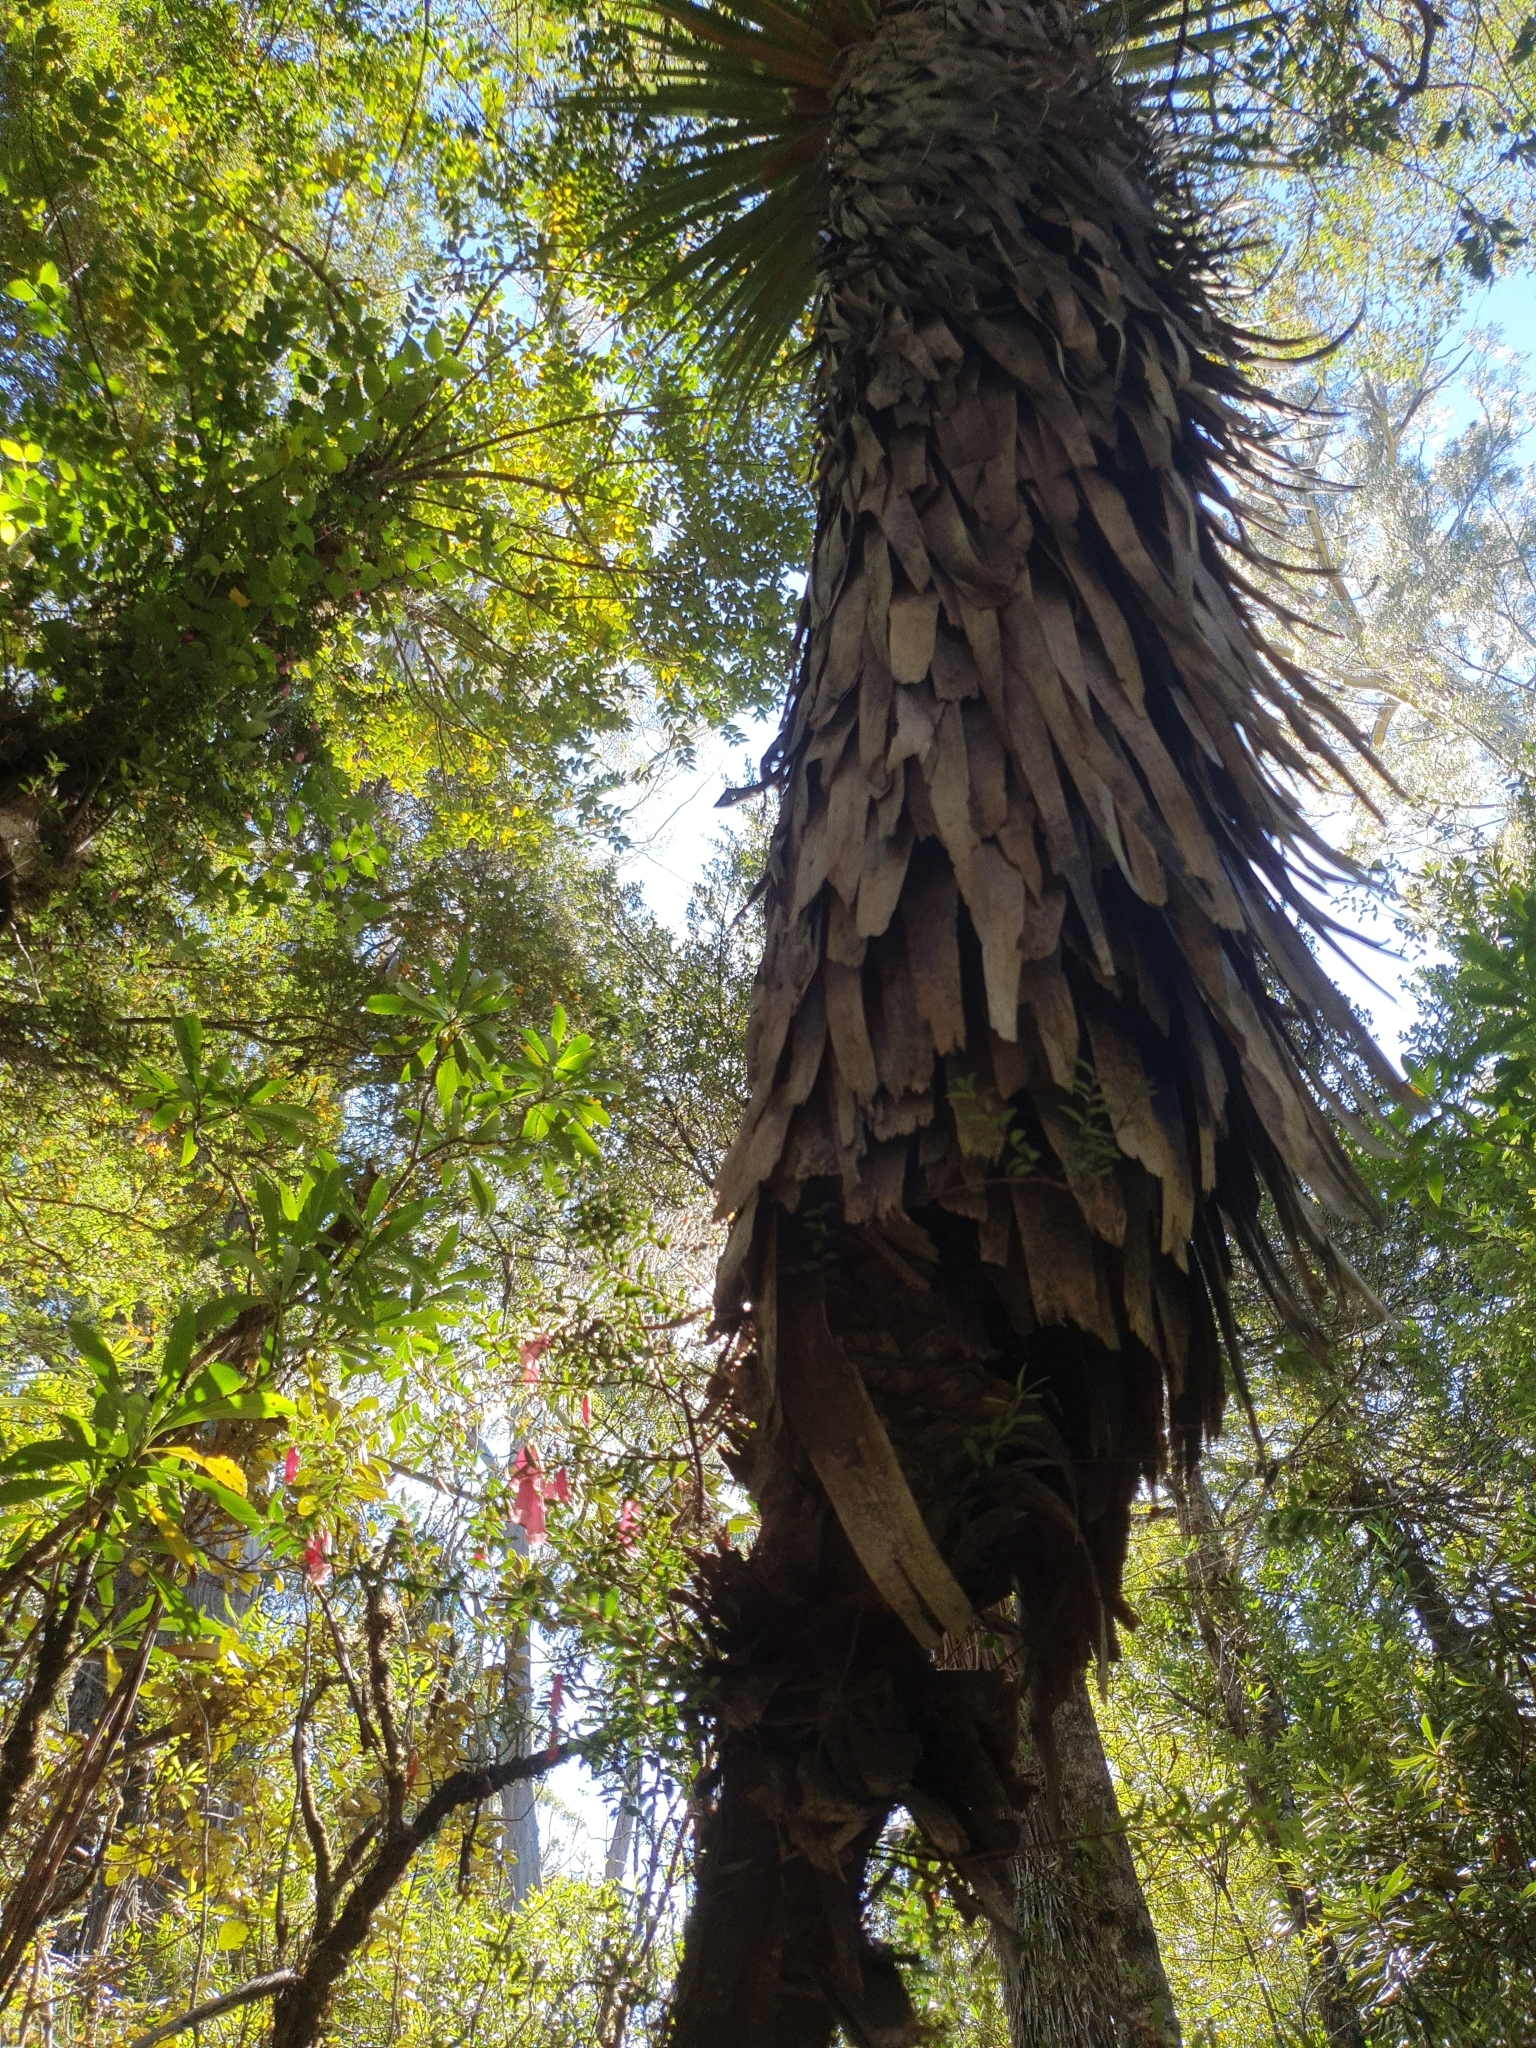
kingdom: Plantae
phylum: Tracheophyta
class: Magnoliopsida
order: Ericales
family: Ericaceae
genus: Dracophyllum
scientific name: Dracophyllum pandanifolium
